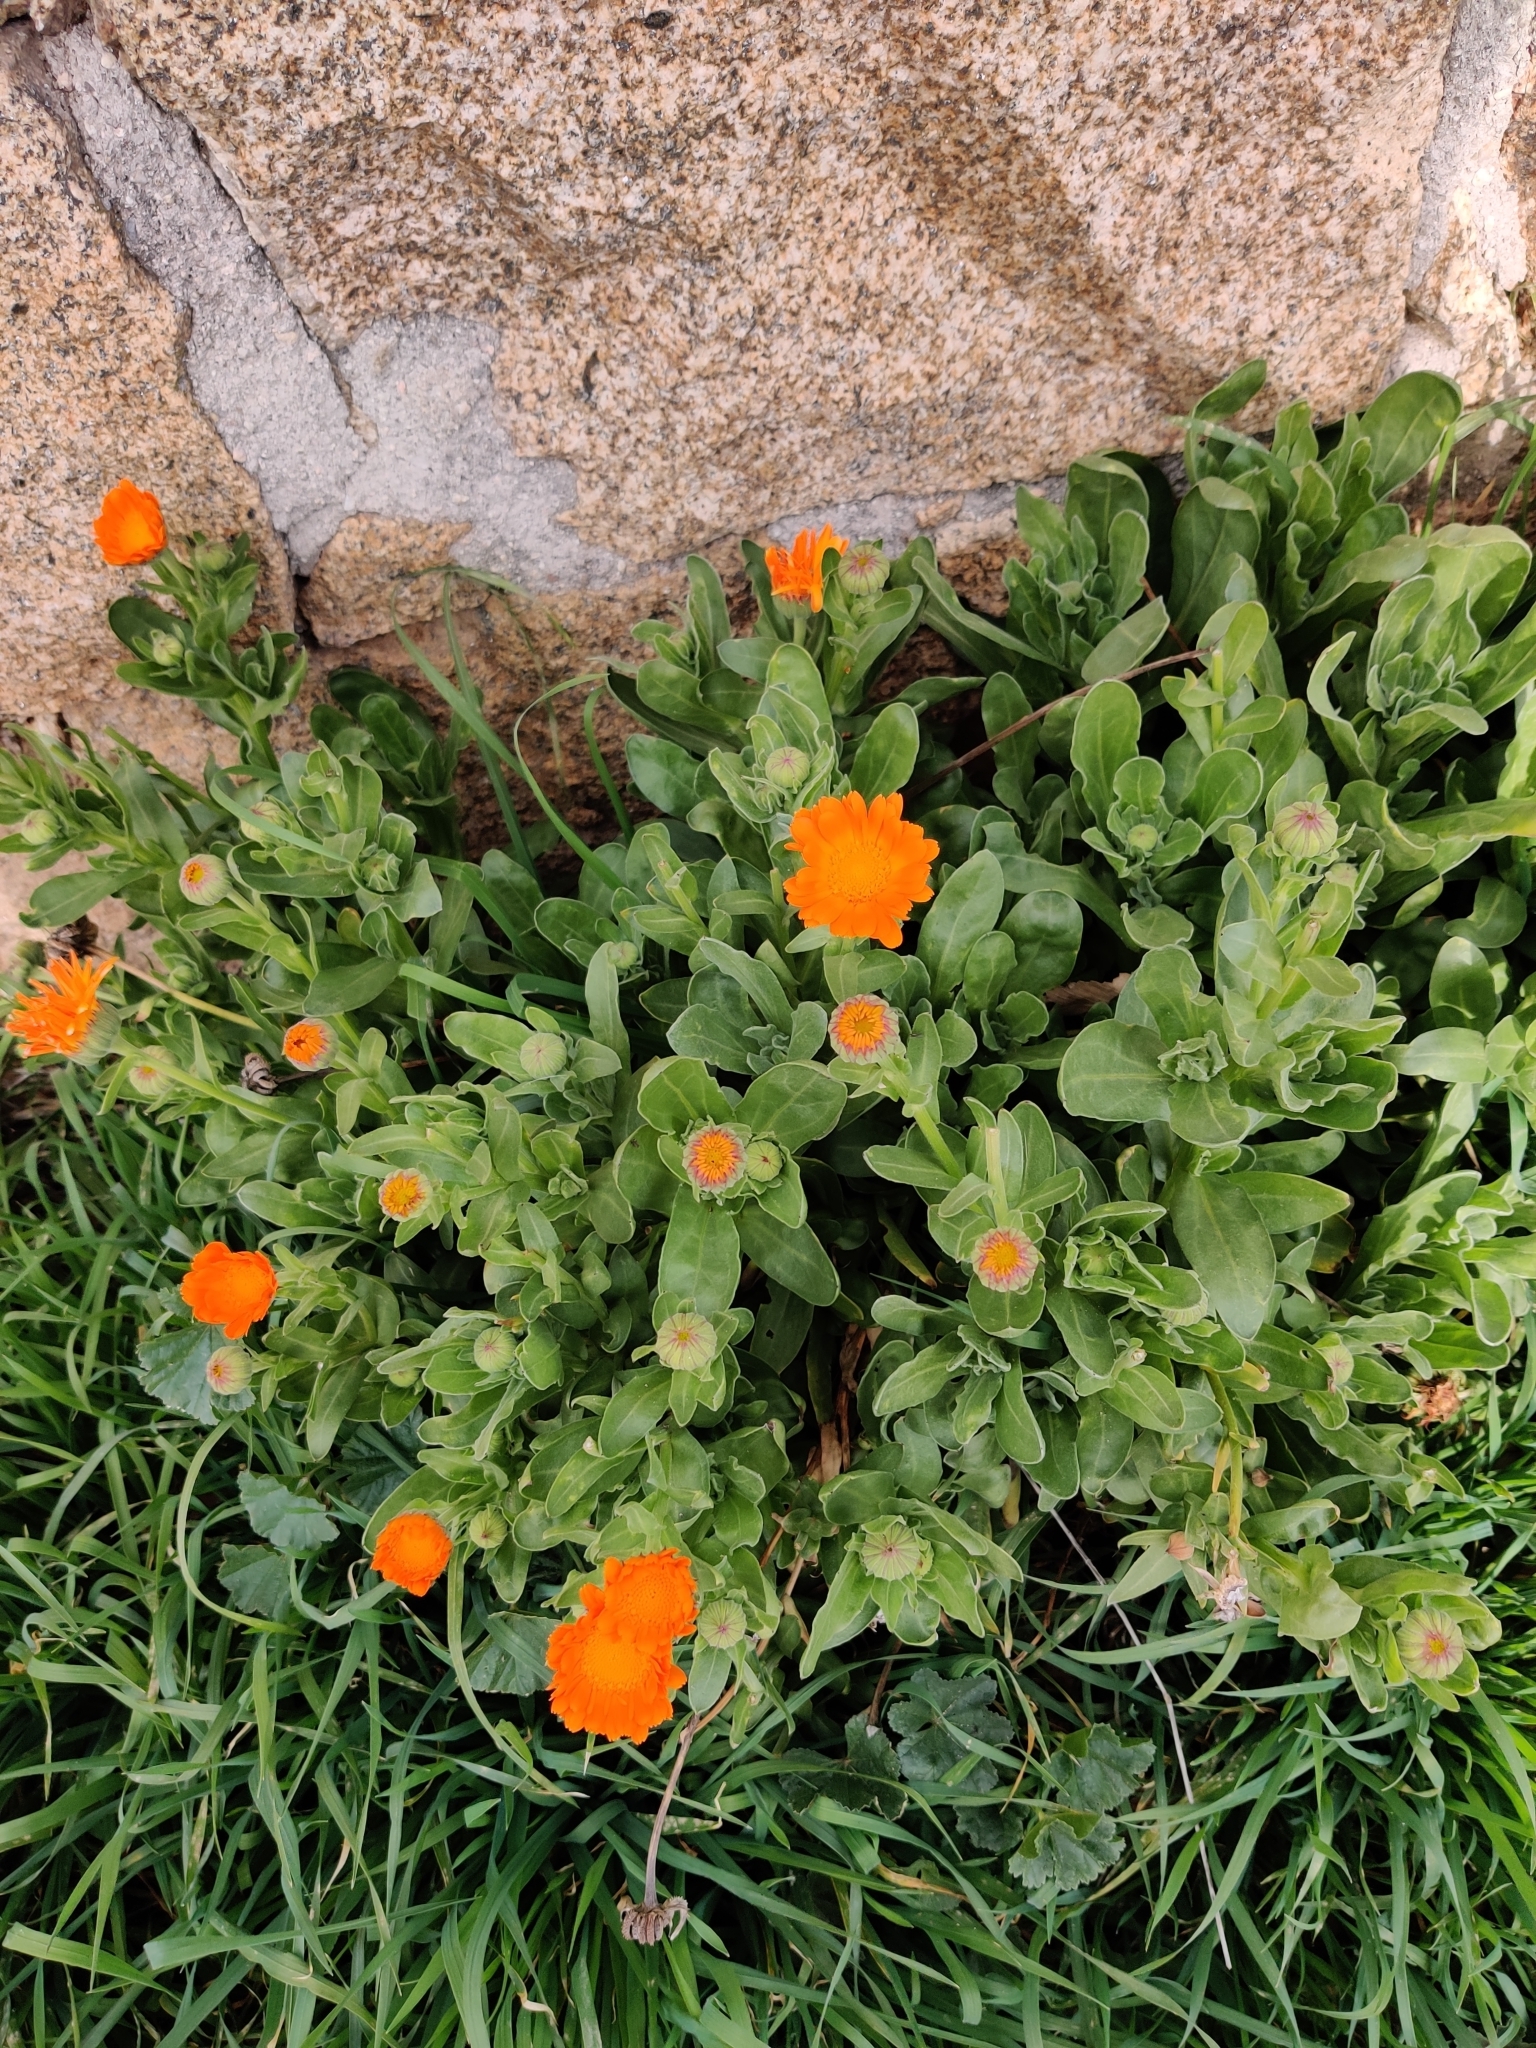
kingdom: Plantae
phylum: Tracheophyta
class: Magnoliopsida
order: Asterales
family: Asteraceae
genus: Calendula
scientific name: Calendula officinalis
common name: Pot marigold
